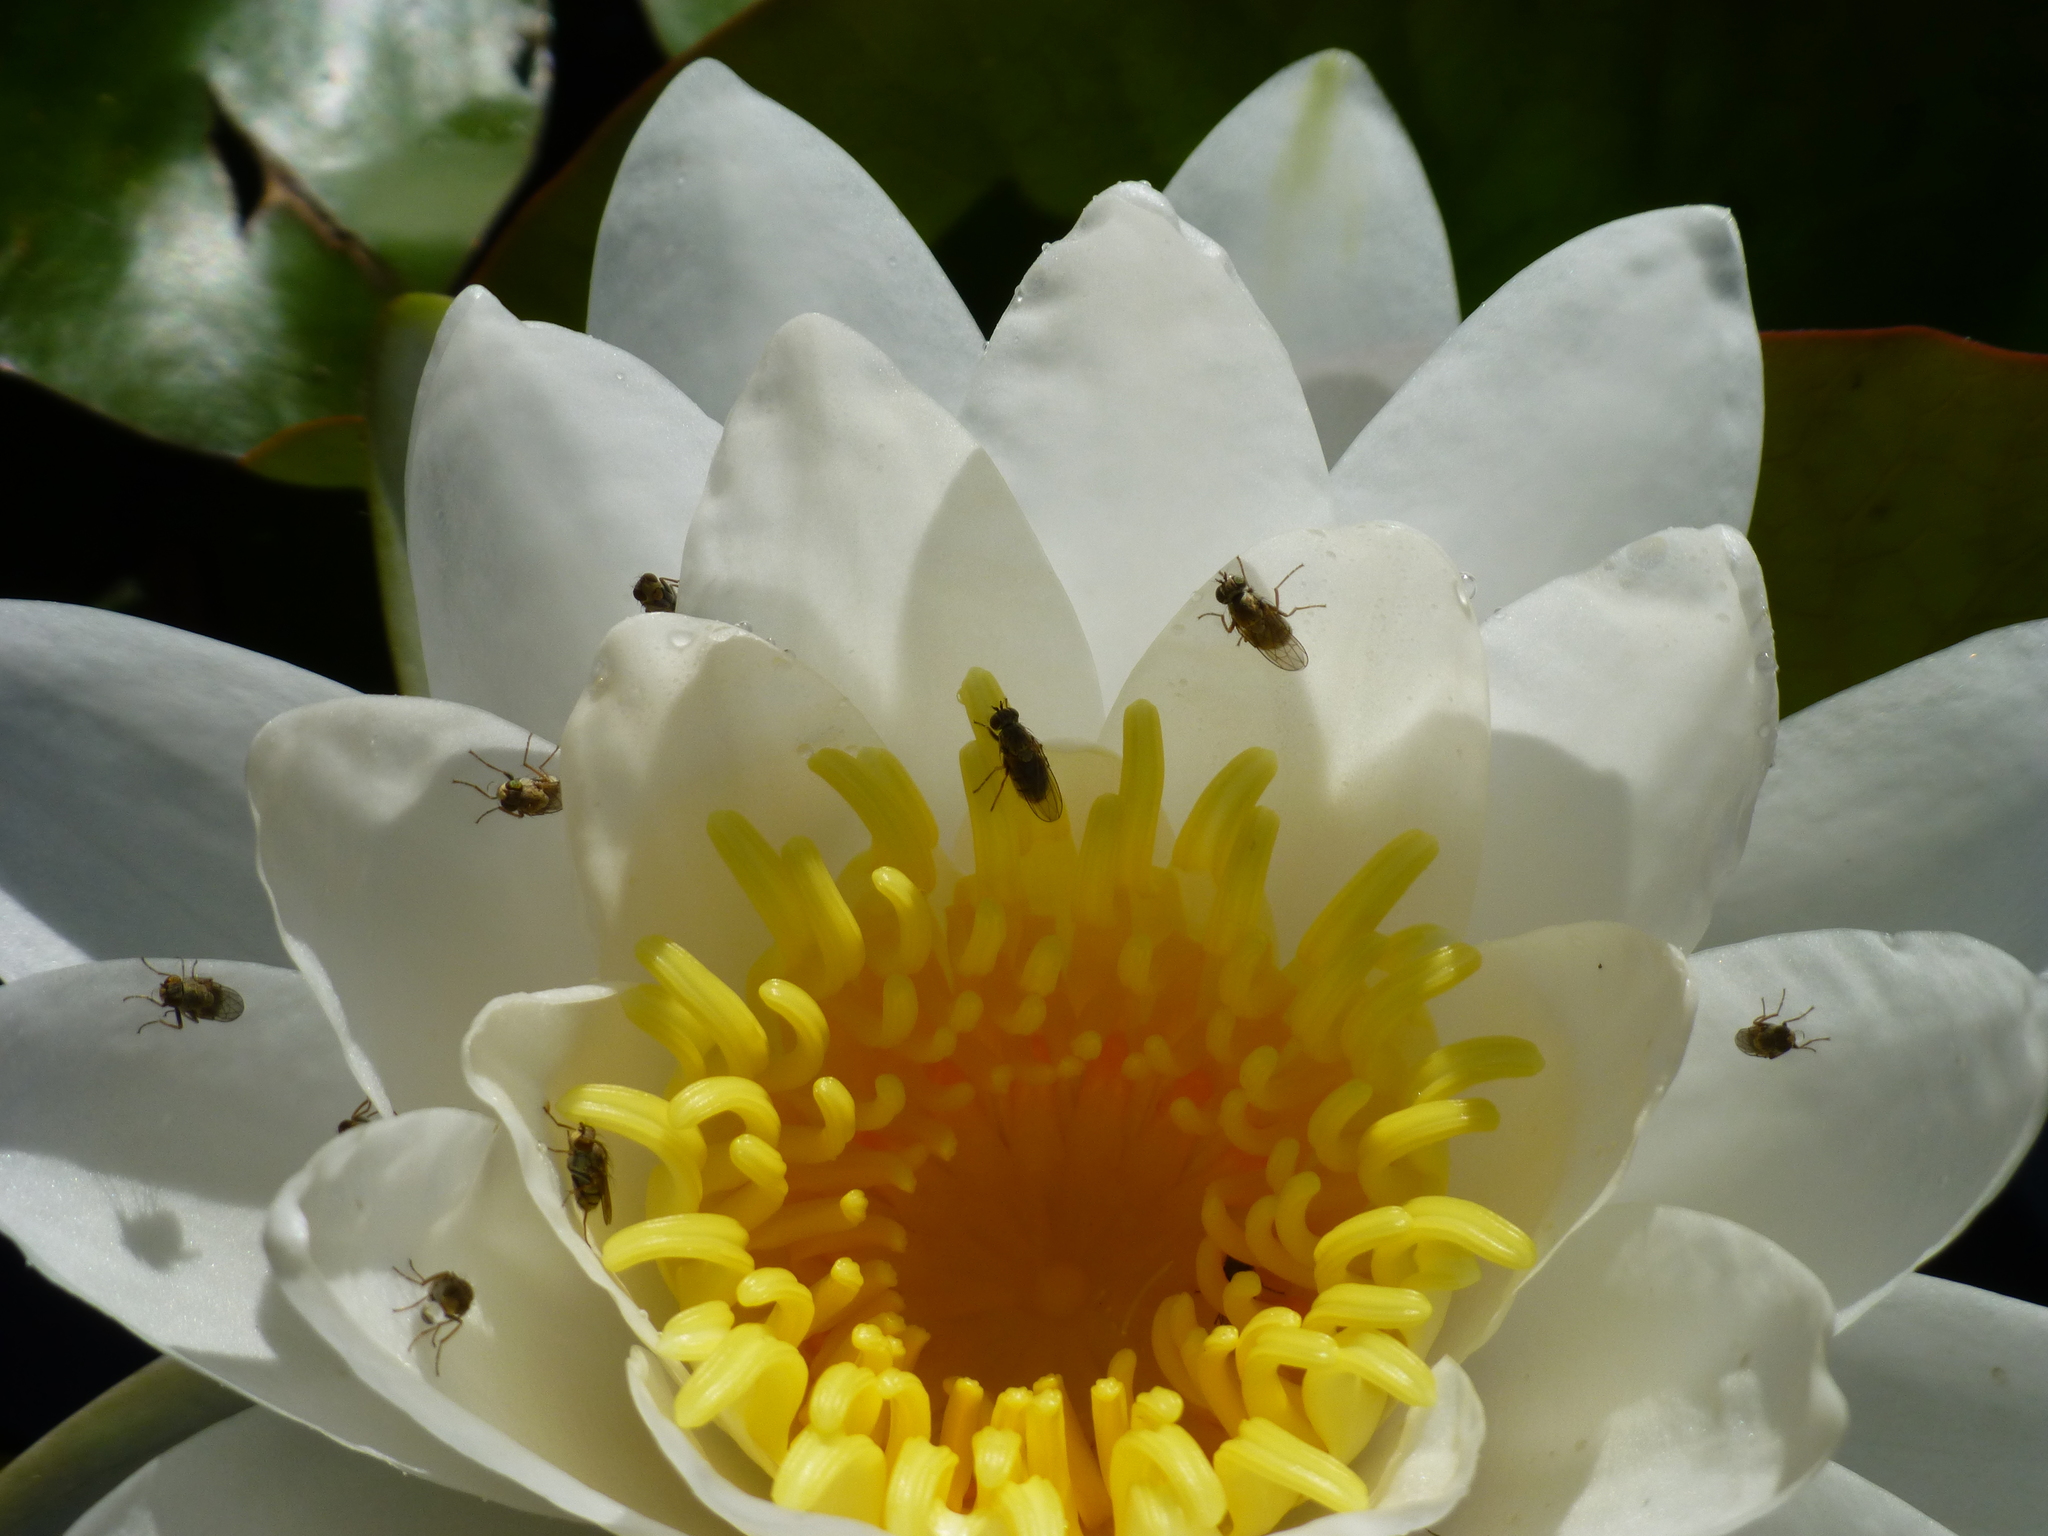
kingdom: Plantae
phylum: Tracheophyta
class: Magnoliopsida
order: Nymphaeales
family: Nymphaeaceae
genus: Nymphaea
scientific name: Nymphaea odorata
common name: Fragrant water-lily
